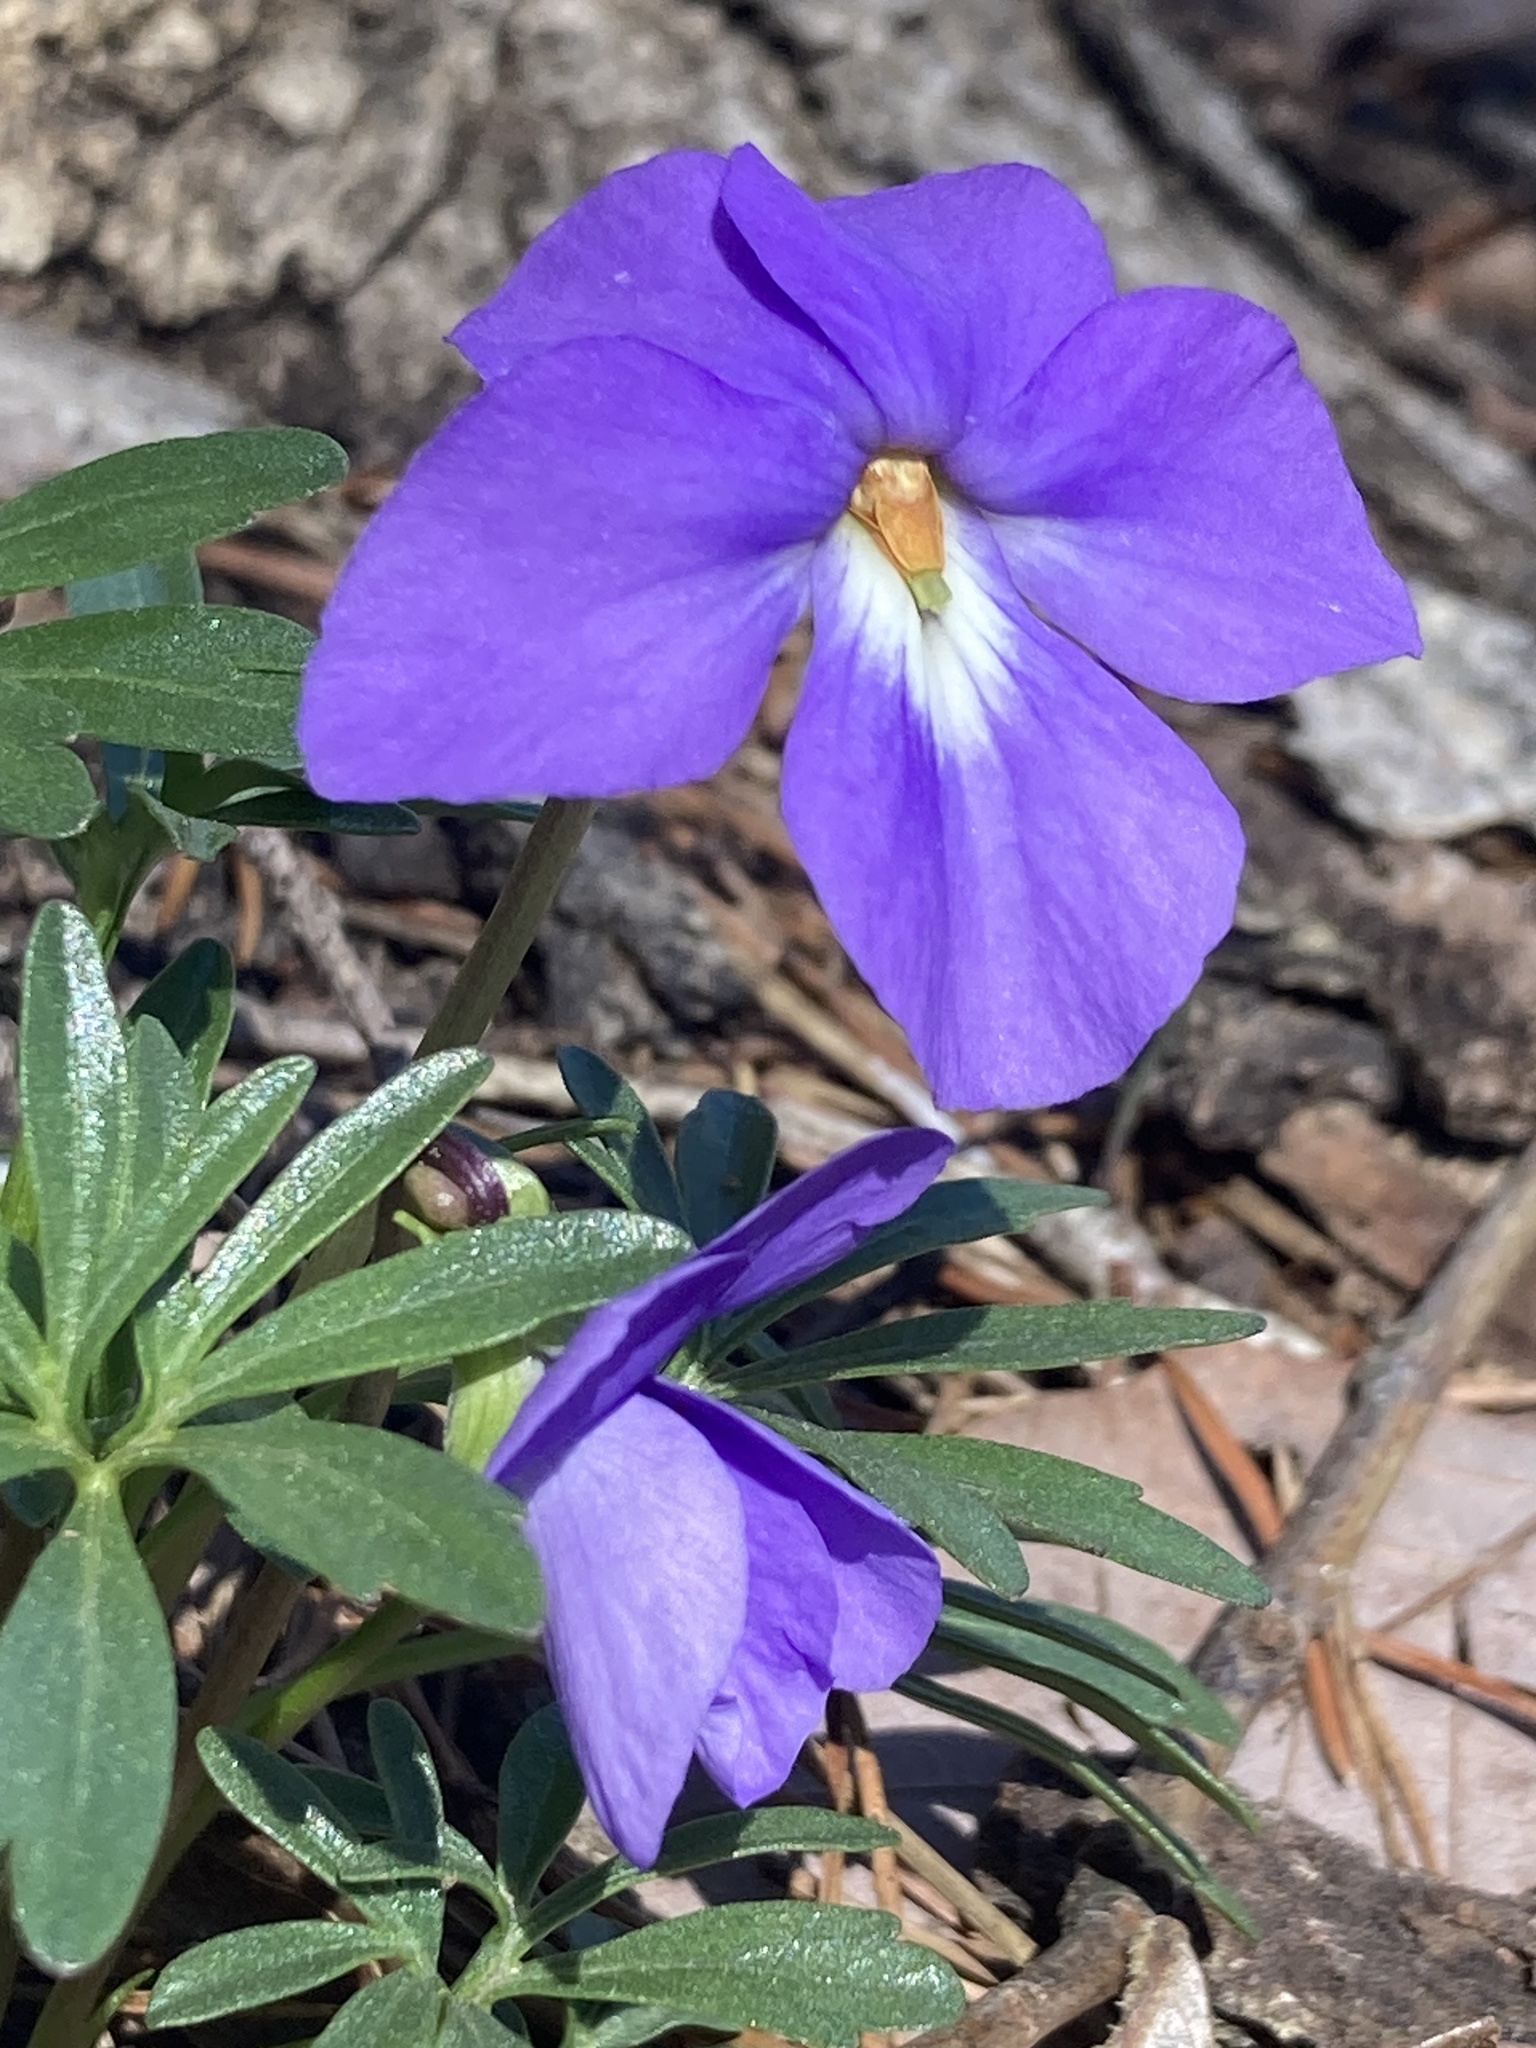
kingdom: Plantae
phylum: Tracheophyta
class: Magnoliopsida
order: Malpighiales
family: Violaceae
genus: Viola
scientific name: Viola pedata
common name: Pansy violet
